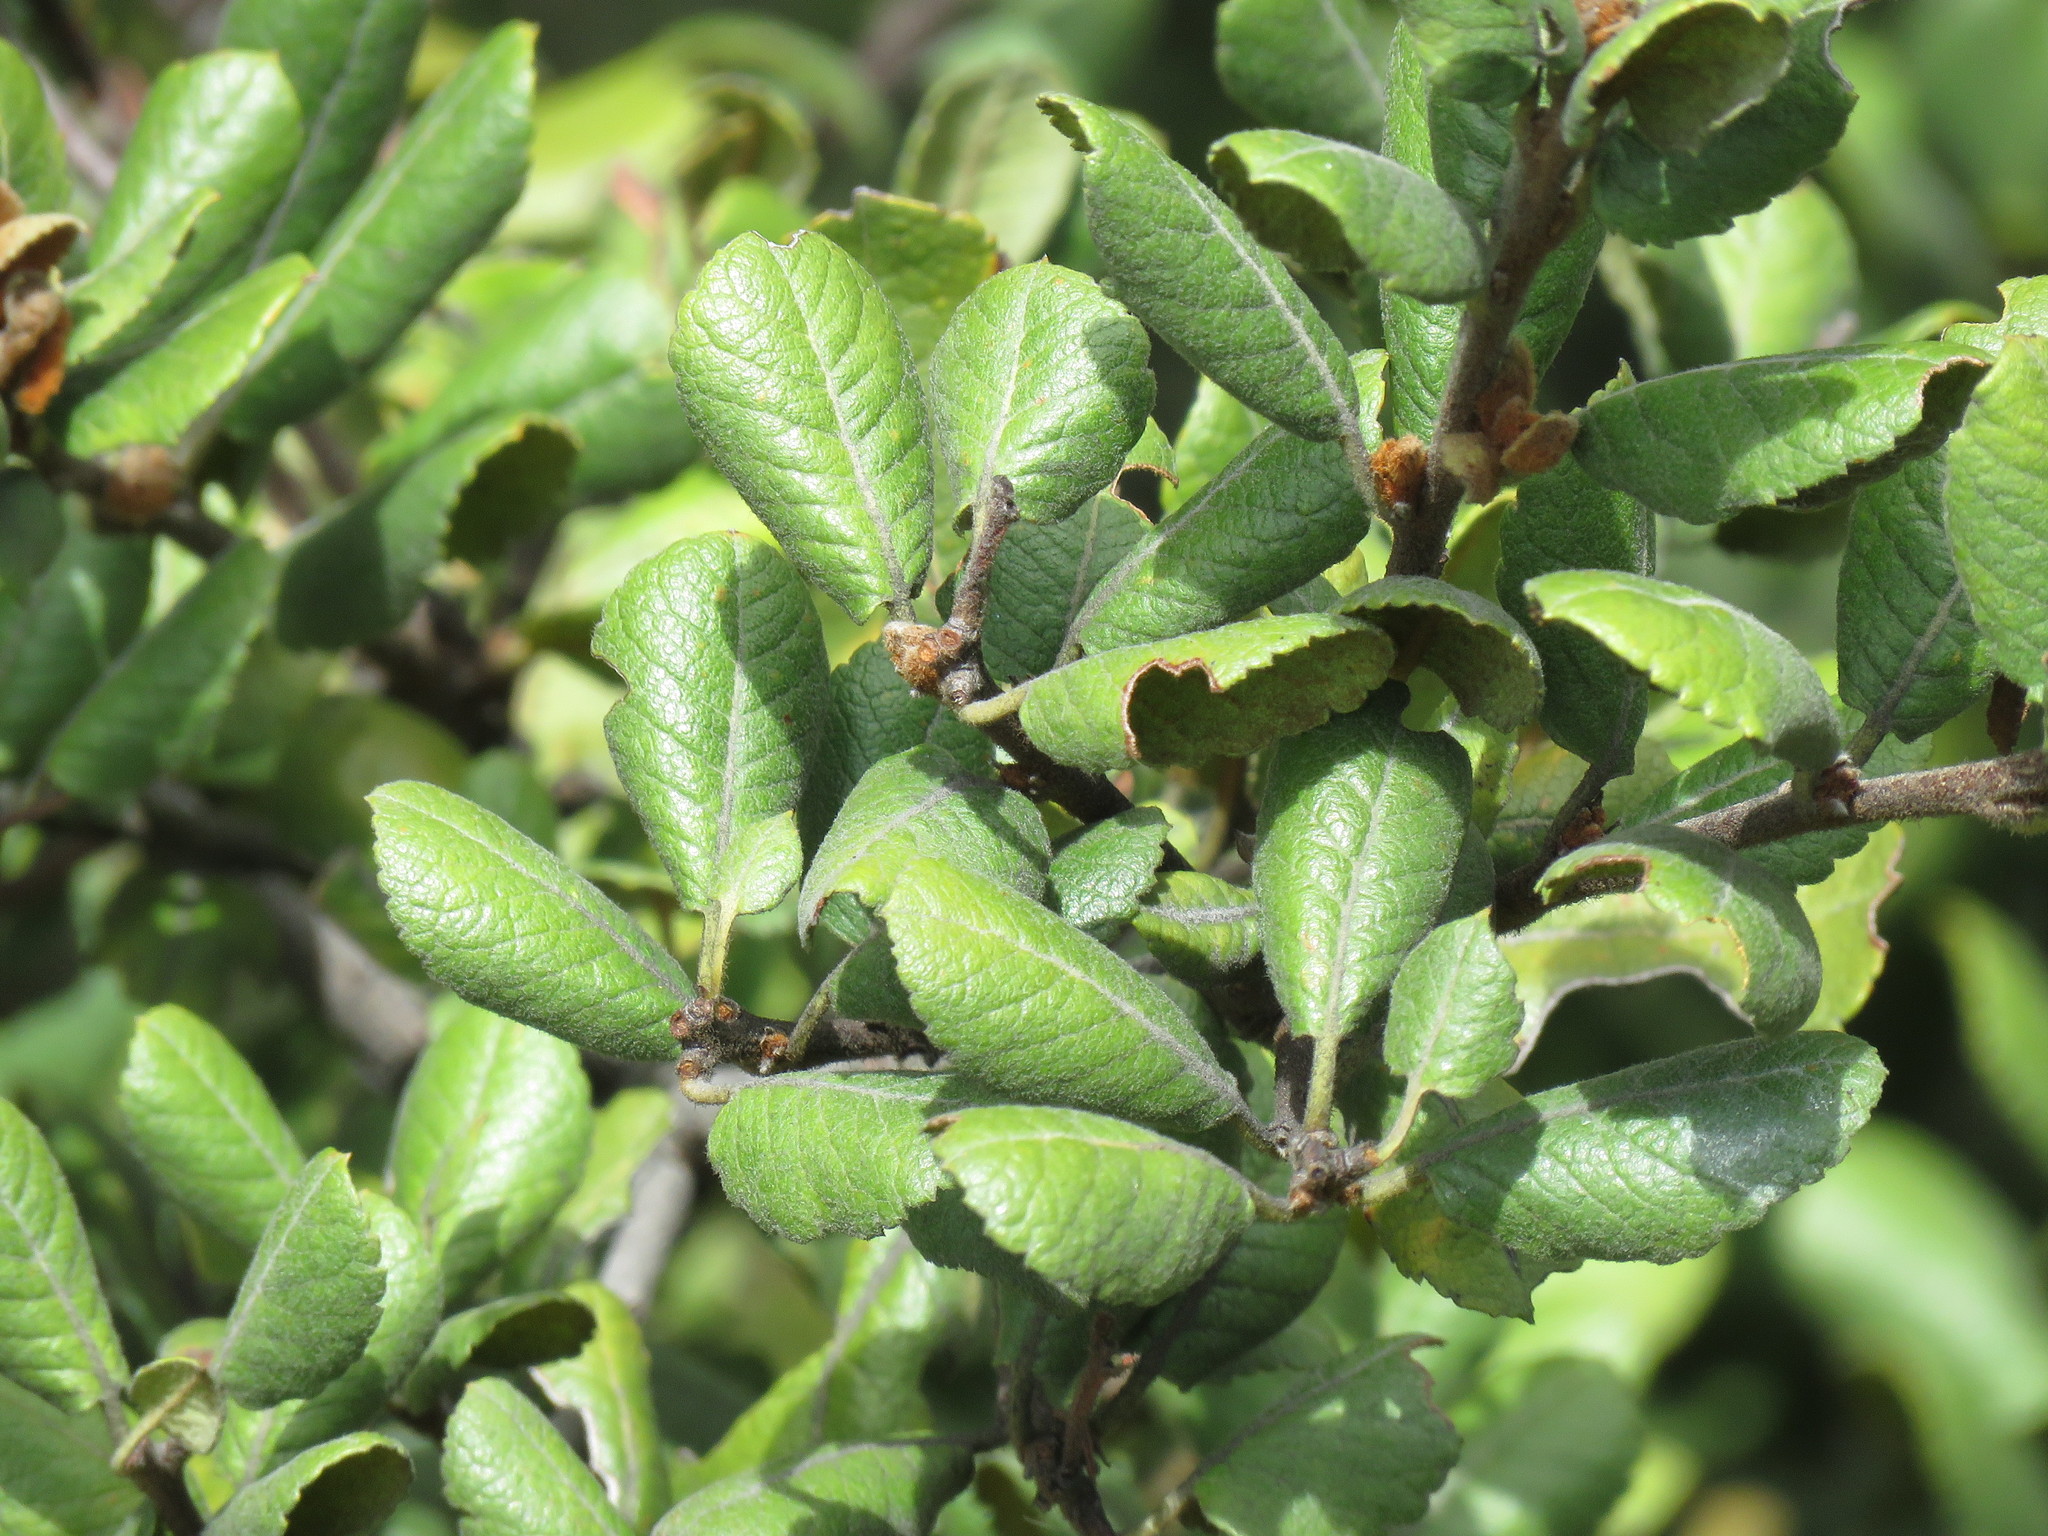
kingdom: Plantae
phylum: Tracheophyta
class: Magnoliopsida
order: Rosales
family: Rosaceae
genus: Hesperomeles
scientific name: Hesperomeles goudotiana
